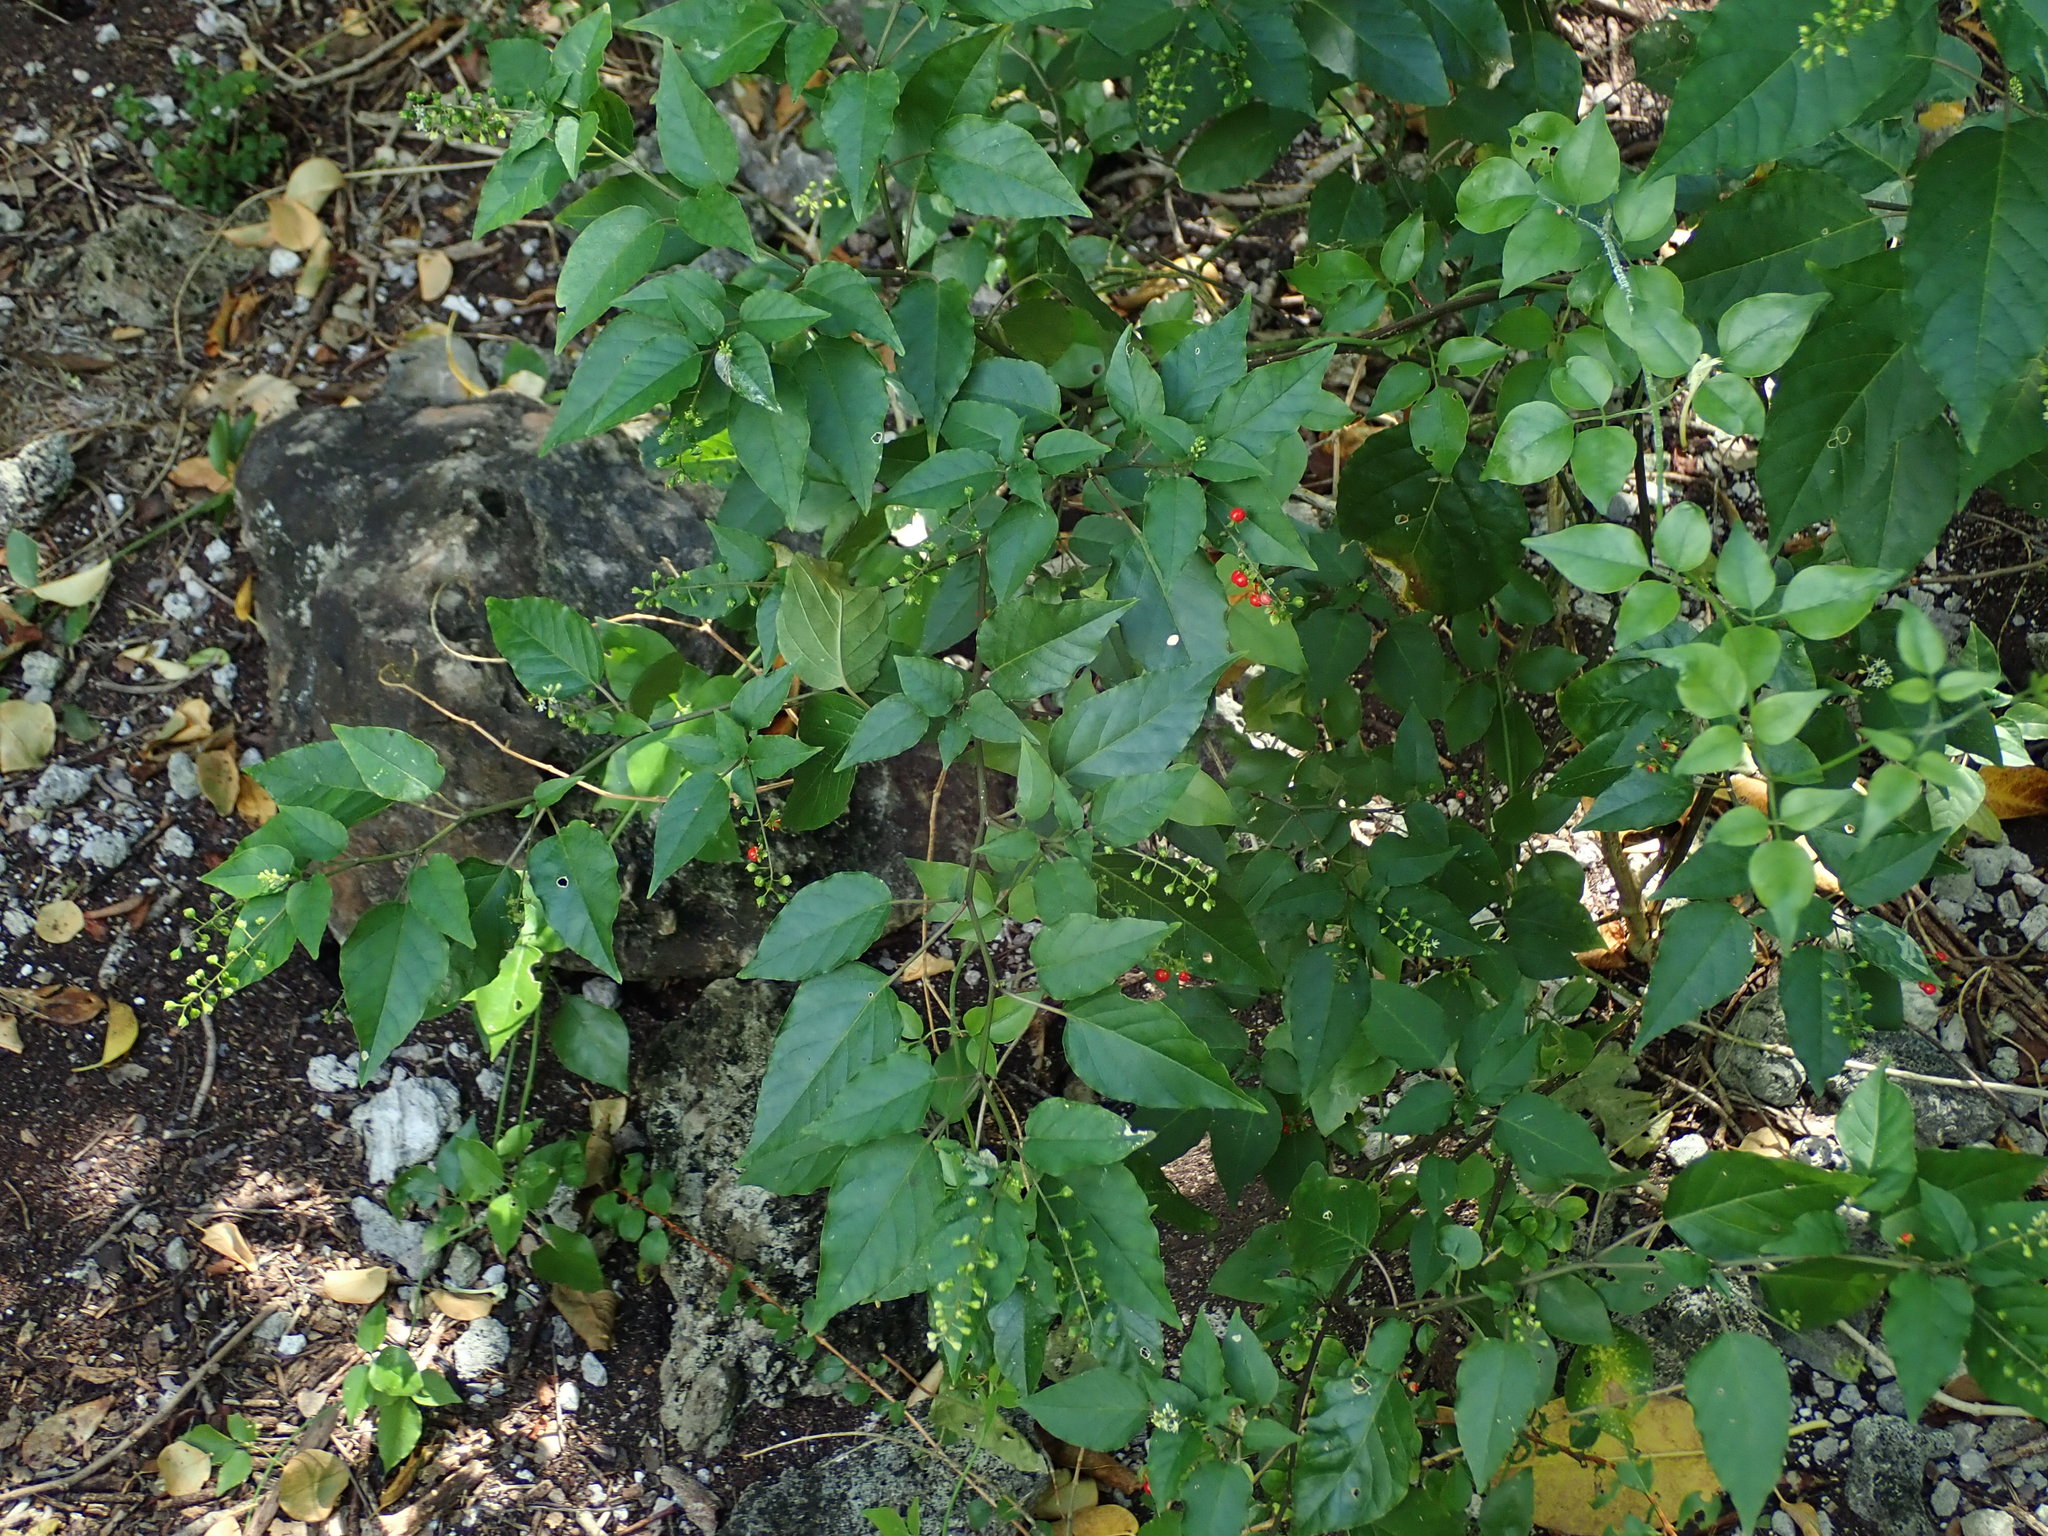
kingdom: Plantae
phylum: Tracheophyta
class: Magnoliopsida
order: Caryophyllales
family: Phytolaccaceae
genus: Rivina
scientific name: Rivina humilis
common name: Rougeplant
